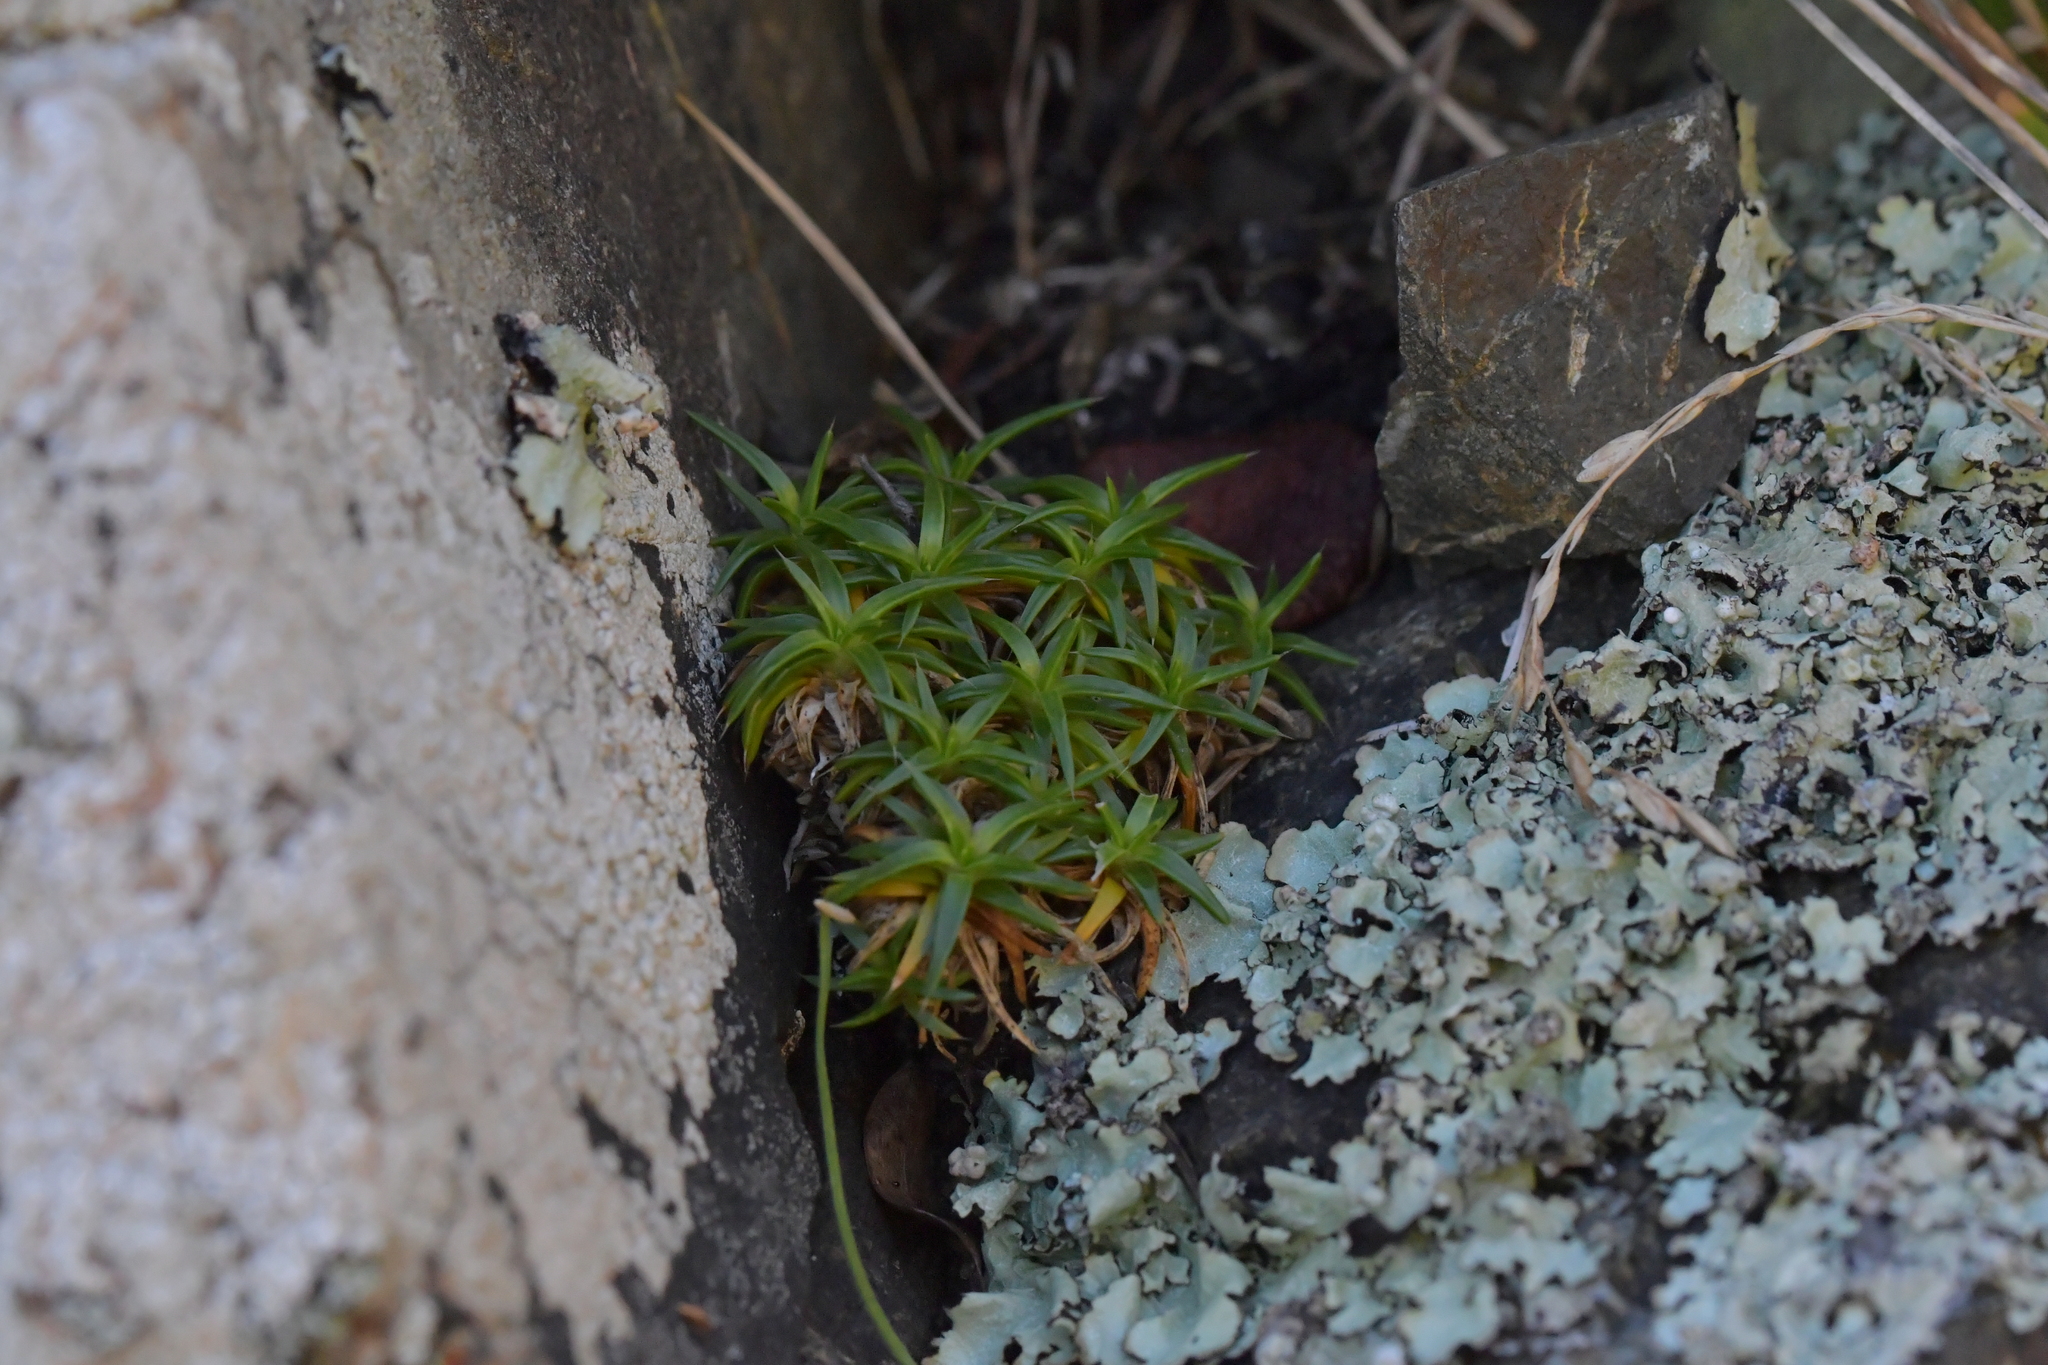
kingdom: Plantae
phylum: Tracheophyta
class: Magnoliopsida
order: Caryophyllales
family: Caryophyllaceae
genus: Colobanthus
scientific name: Colobanthus muelleri
